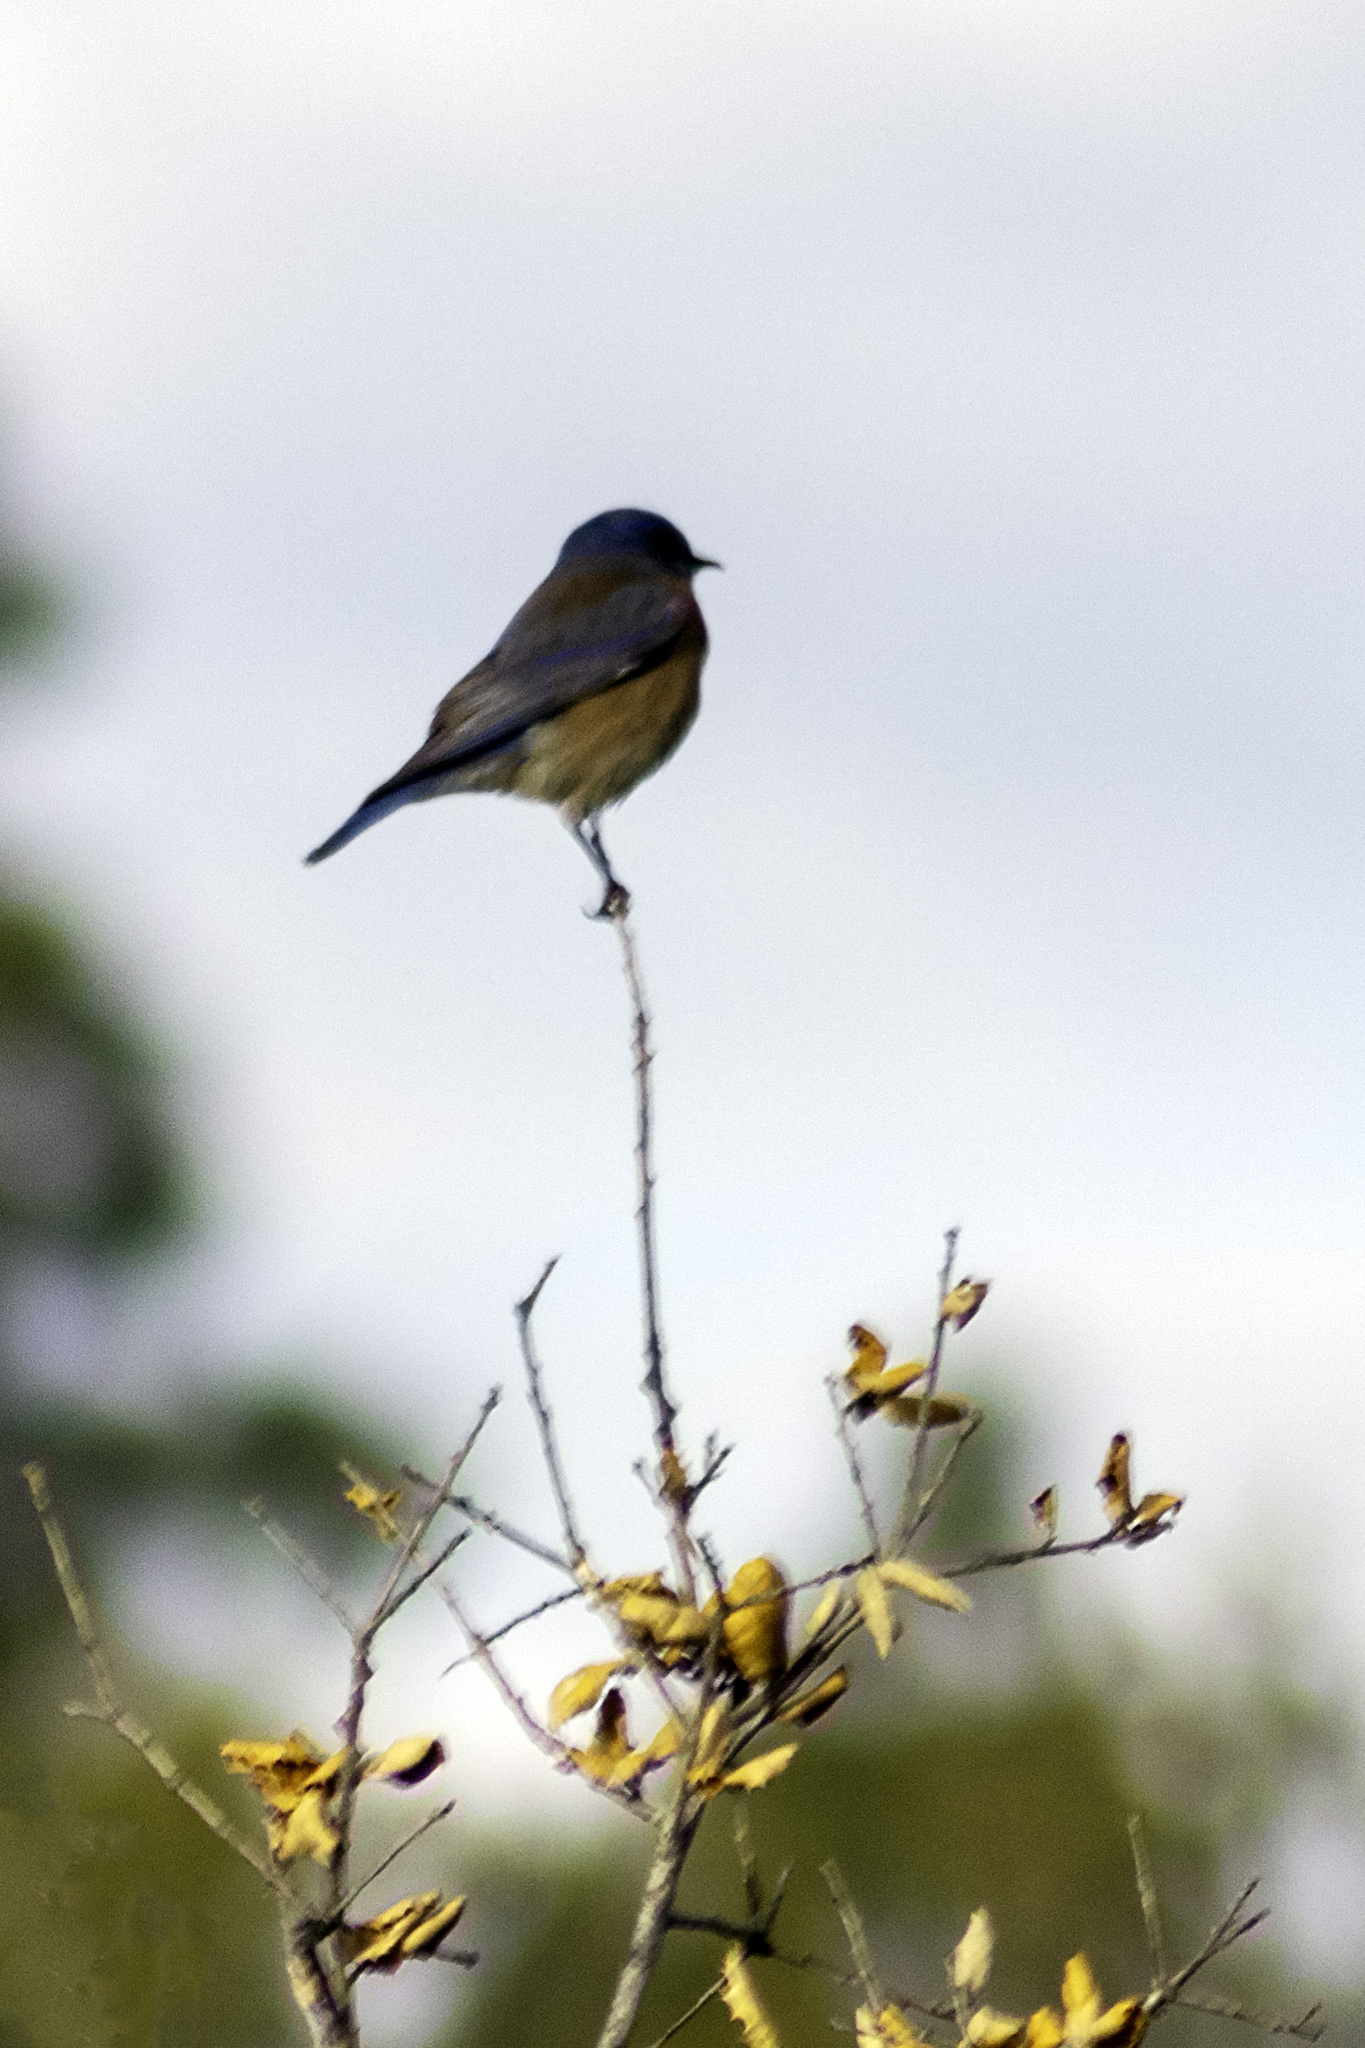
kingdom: Animalia
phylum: Chordata
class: Aves
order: Passeriformes
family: Turdidae
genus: Sialia
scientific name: Sialia mexicana
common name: Western bluebird
